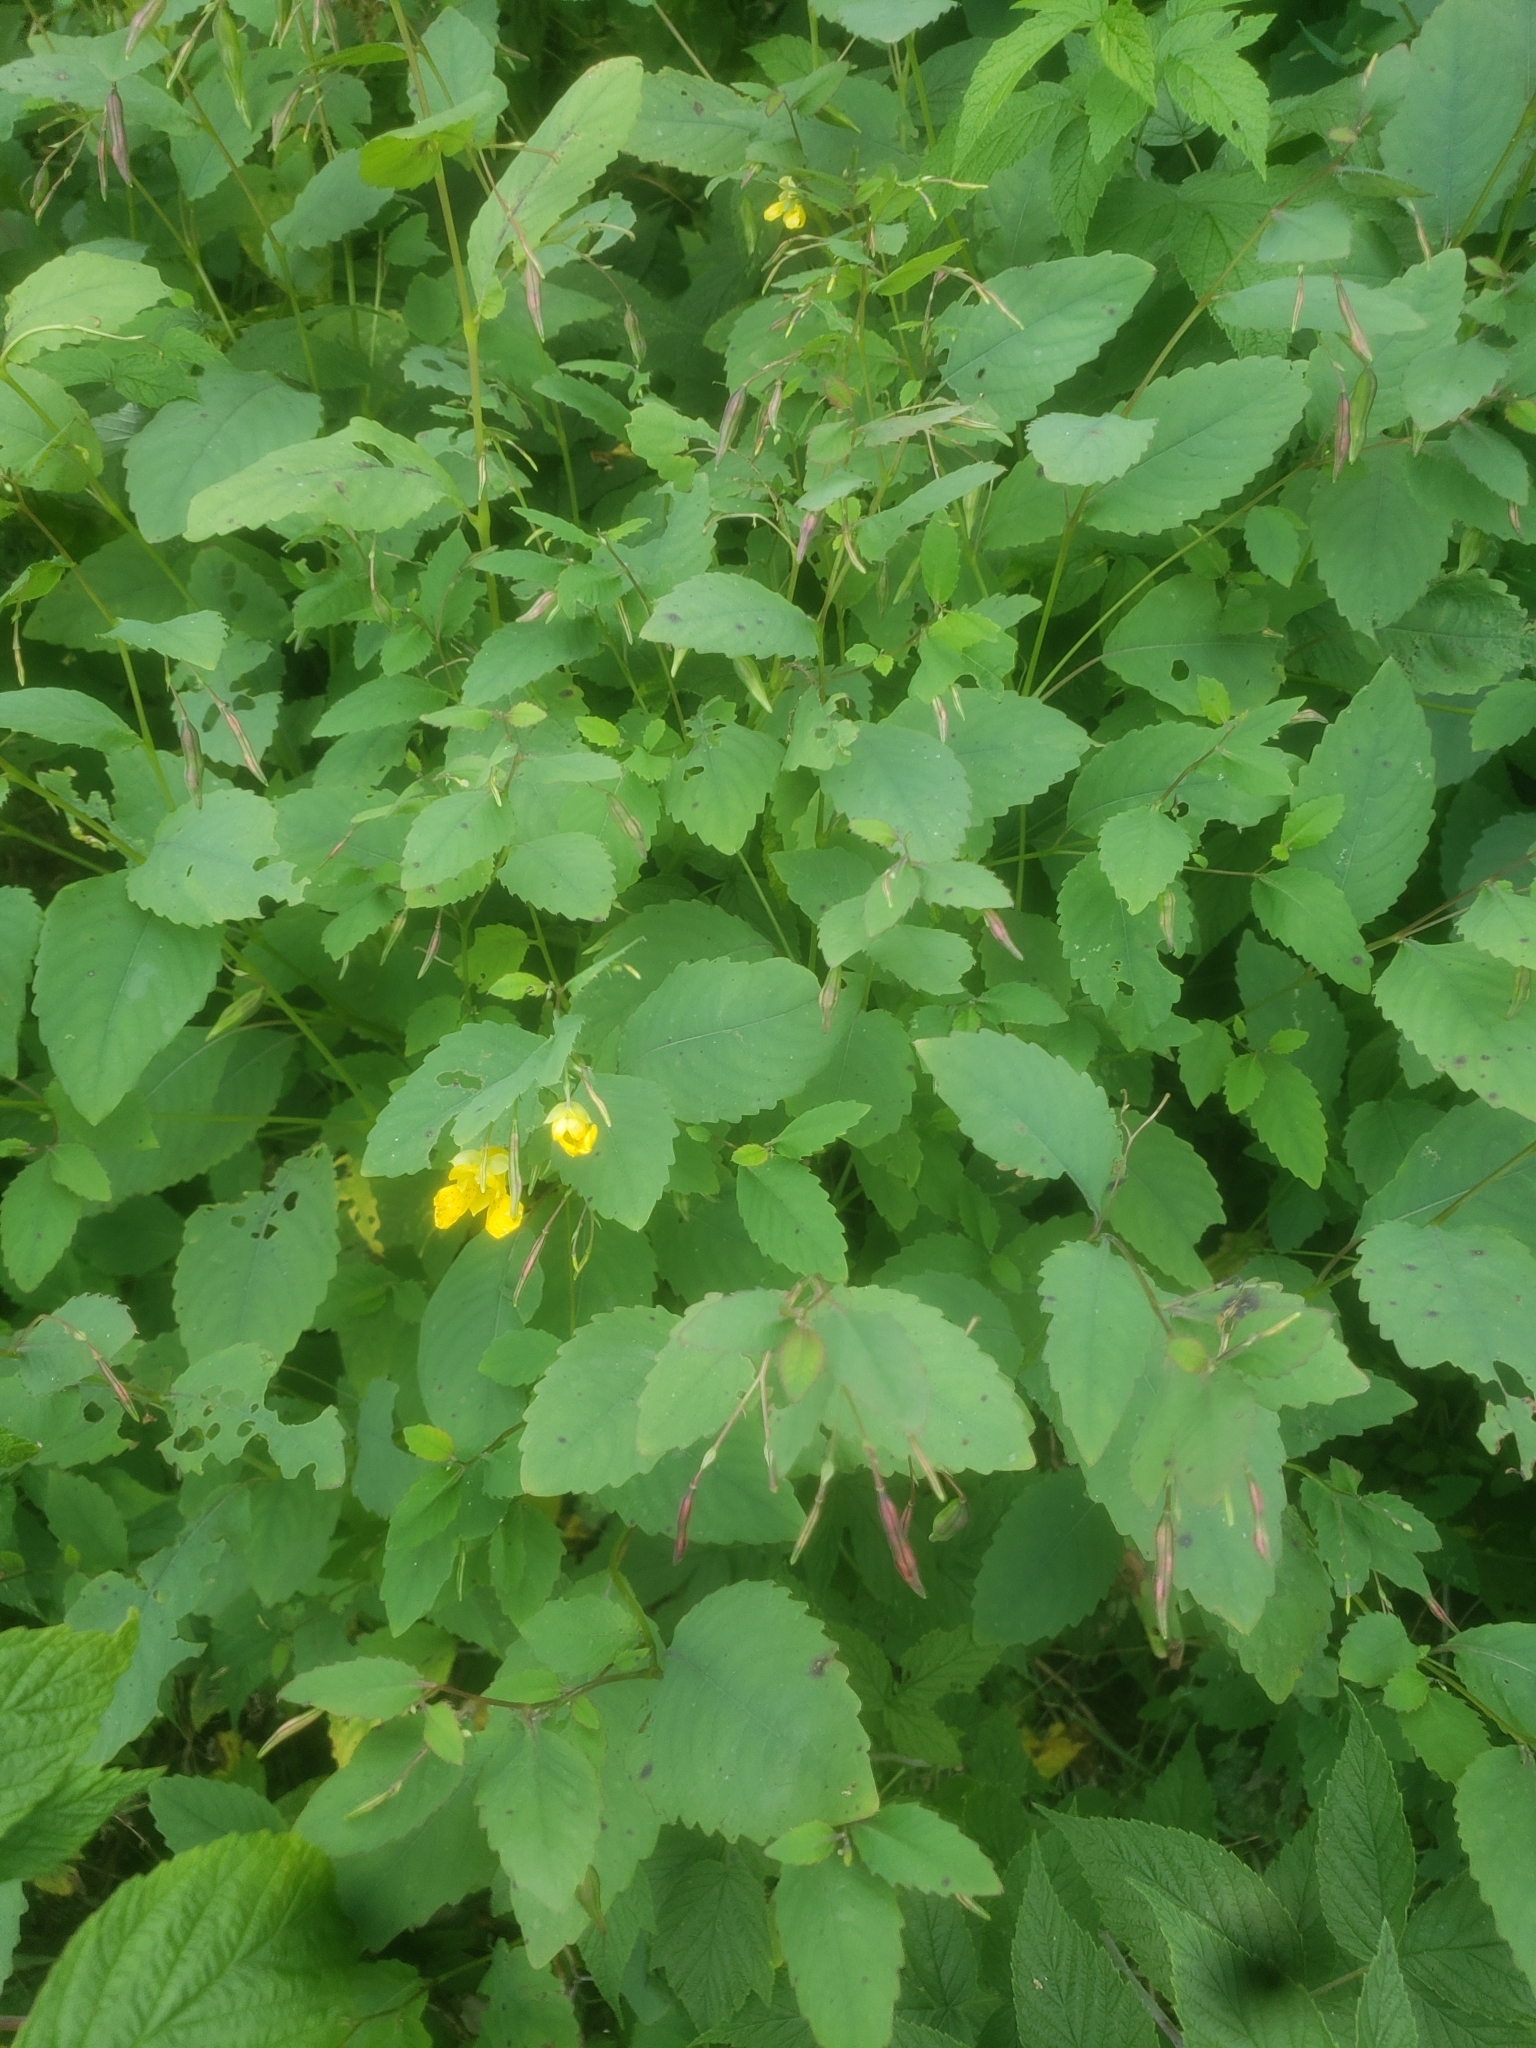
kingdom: Plantae
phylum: Tracheophyta
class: Magnoliopsida
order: Ericales
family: Balsaminaceae
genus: Impatiens
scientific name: Impatiens pallida
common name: Pale snapweed
